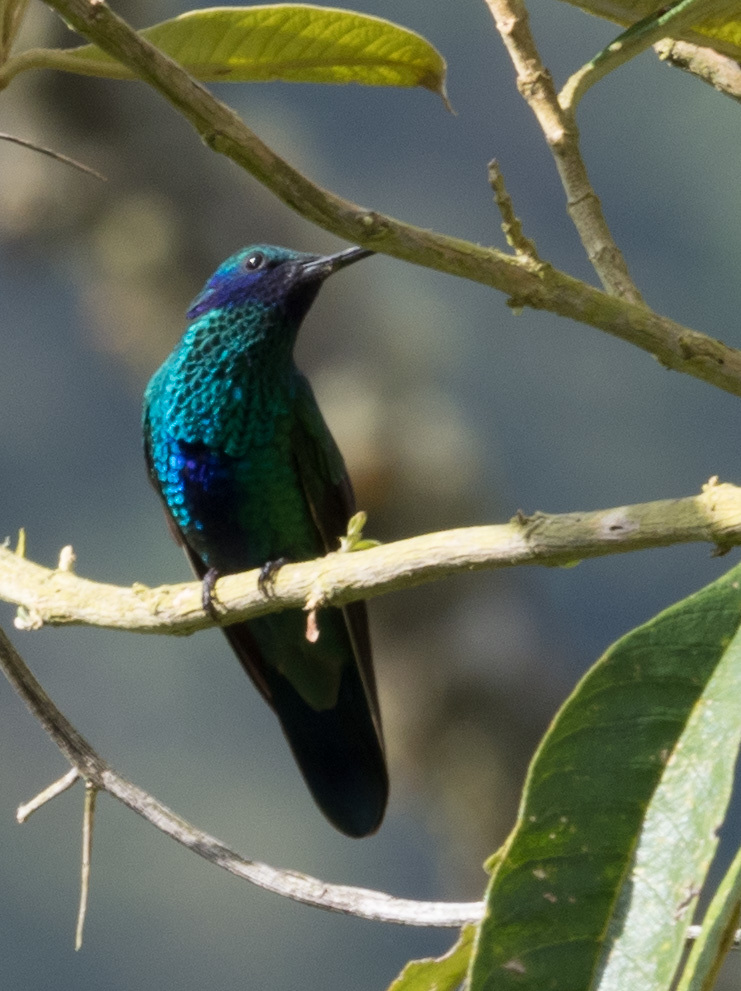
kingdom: Animalia
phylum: Chordata
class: Aves
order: Apodiformes
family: Trochilidae
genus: Colibri
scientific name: Colibri coruscans
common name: Sparkling violetear
